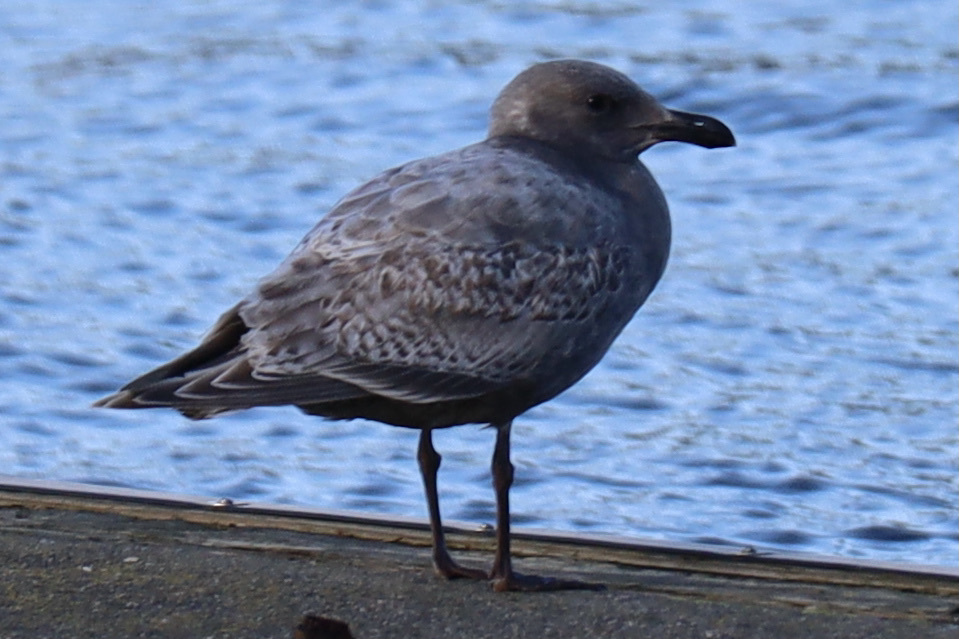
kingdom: Animalia
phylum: Chordata
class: Aves
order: Charadriiformes
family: Laridae
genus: Larus
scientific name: Larus
